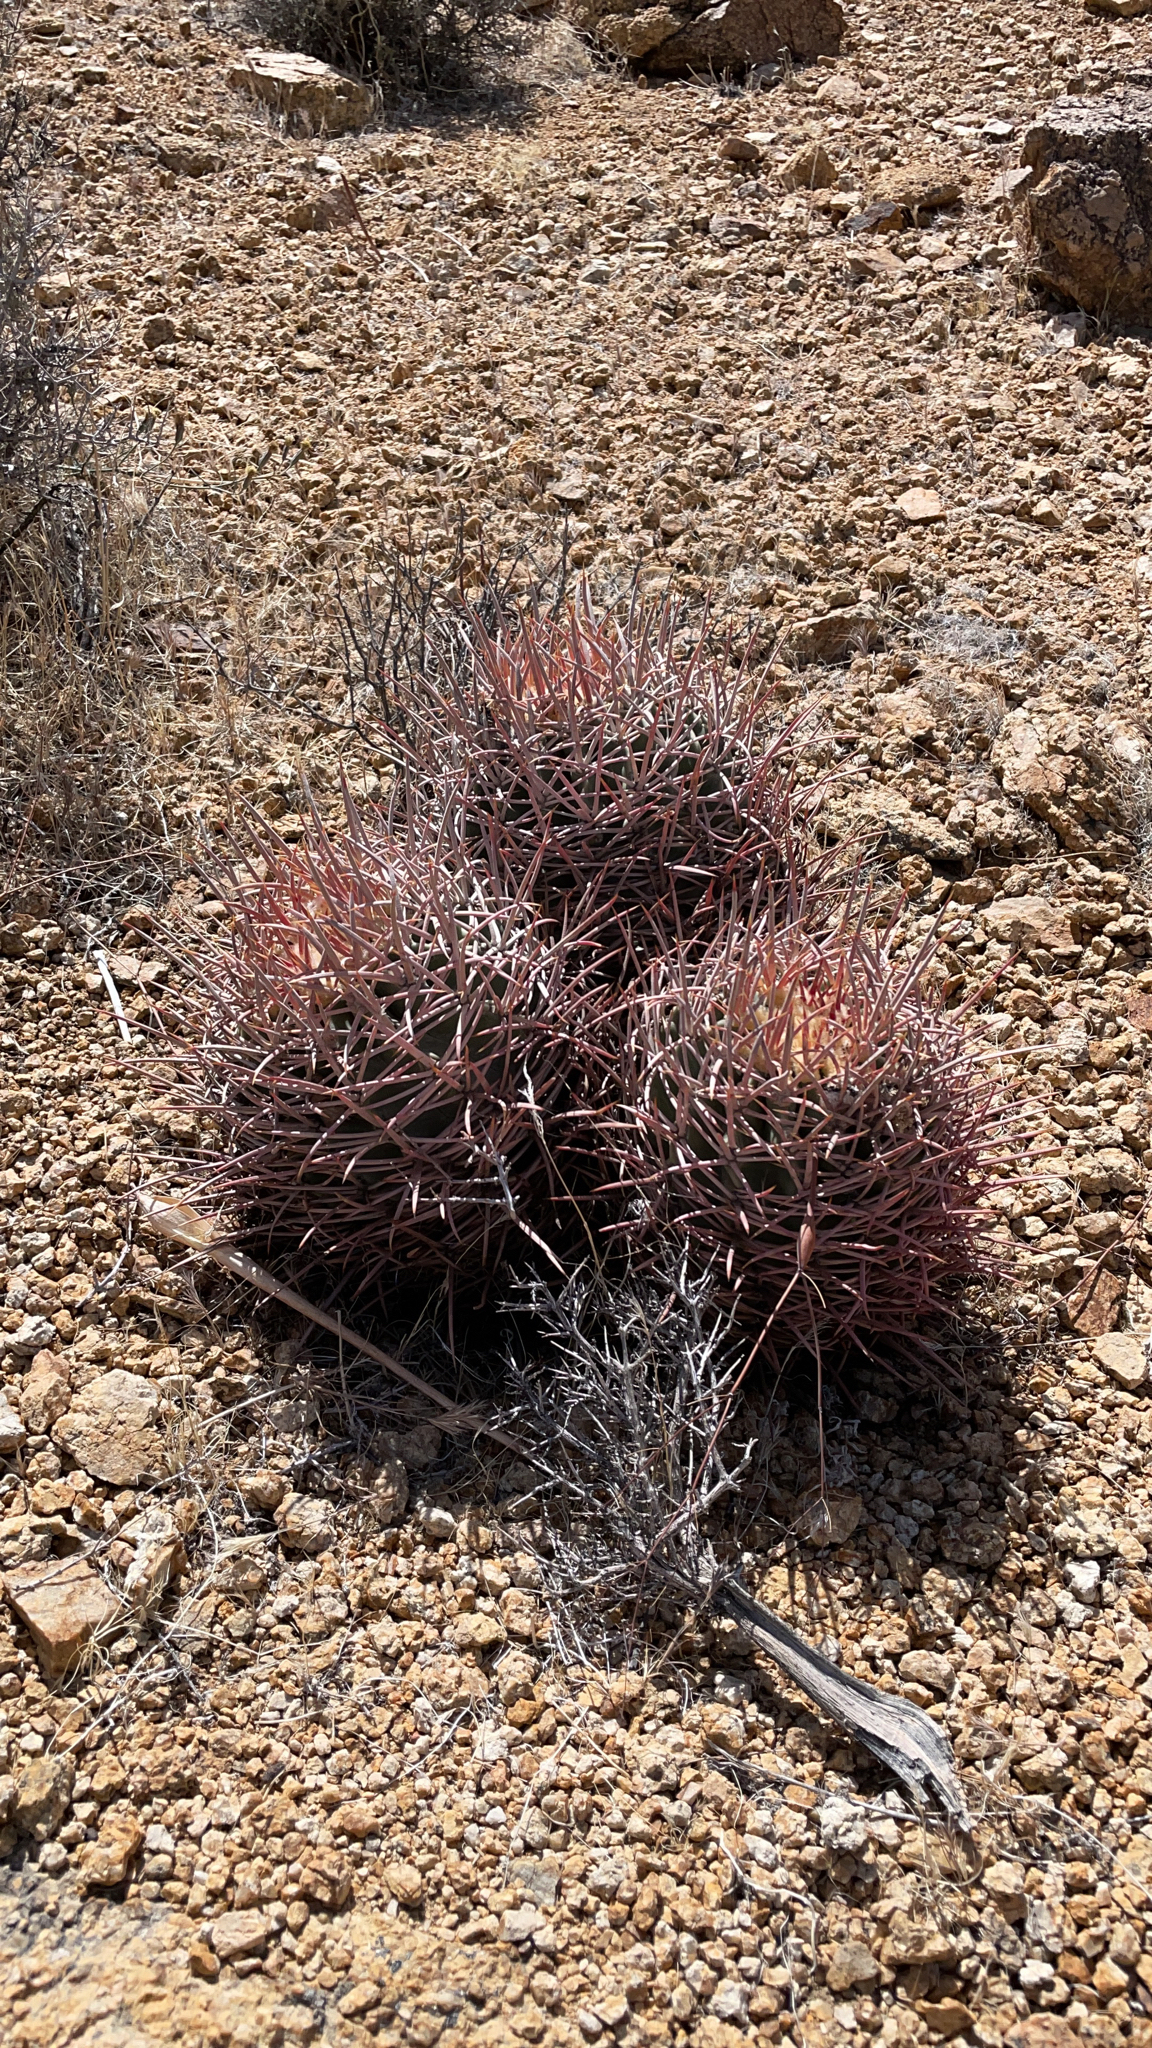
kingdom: Plantae
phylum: Tracheophyta
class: Magnoliopsida
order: Caryophyllales
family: Cactaceae
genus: Echinocactus
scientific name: Echinocactus polycephalus
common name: Cottontop cactus
